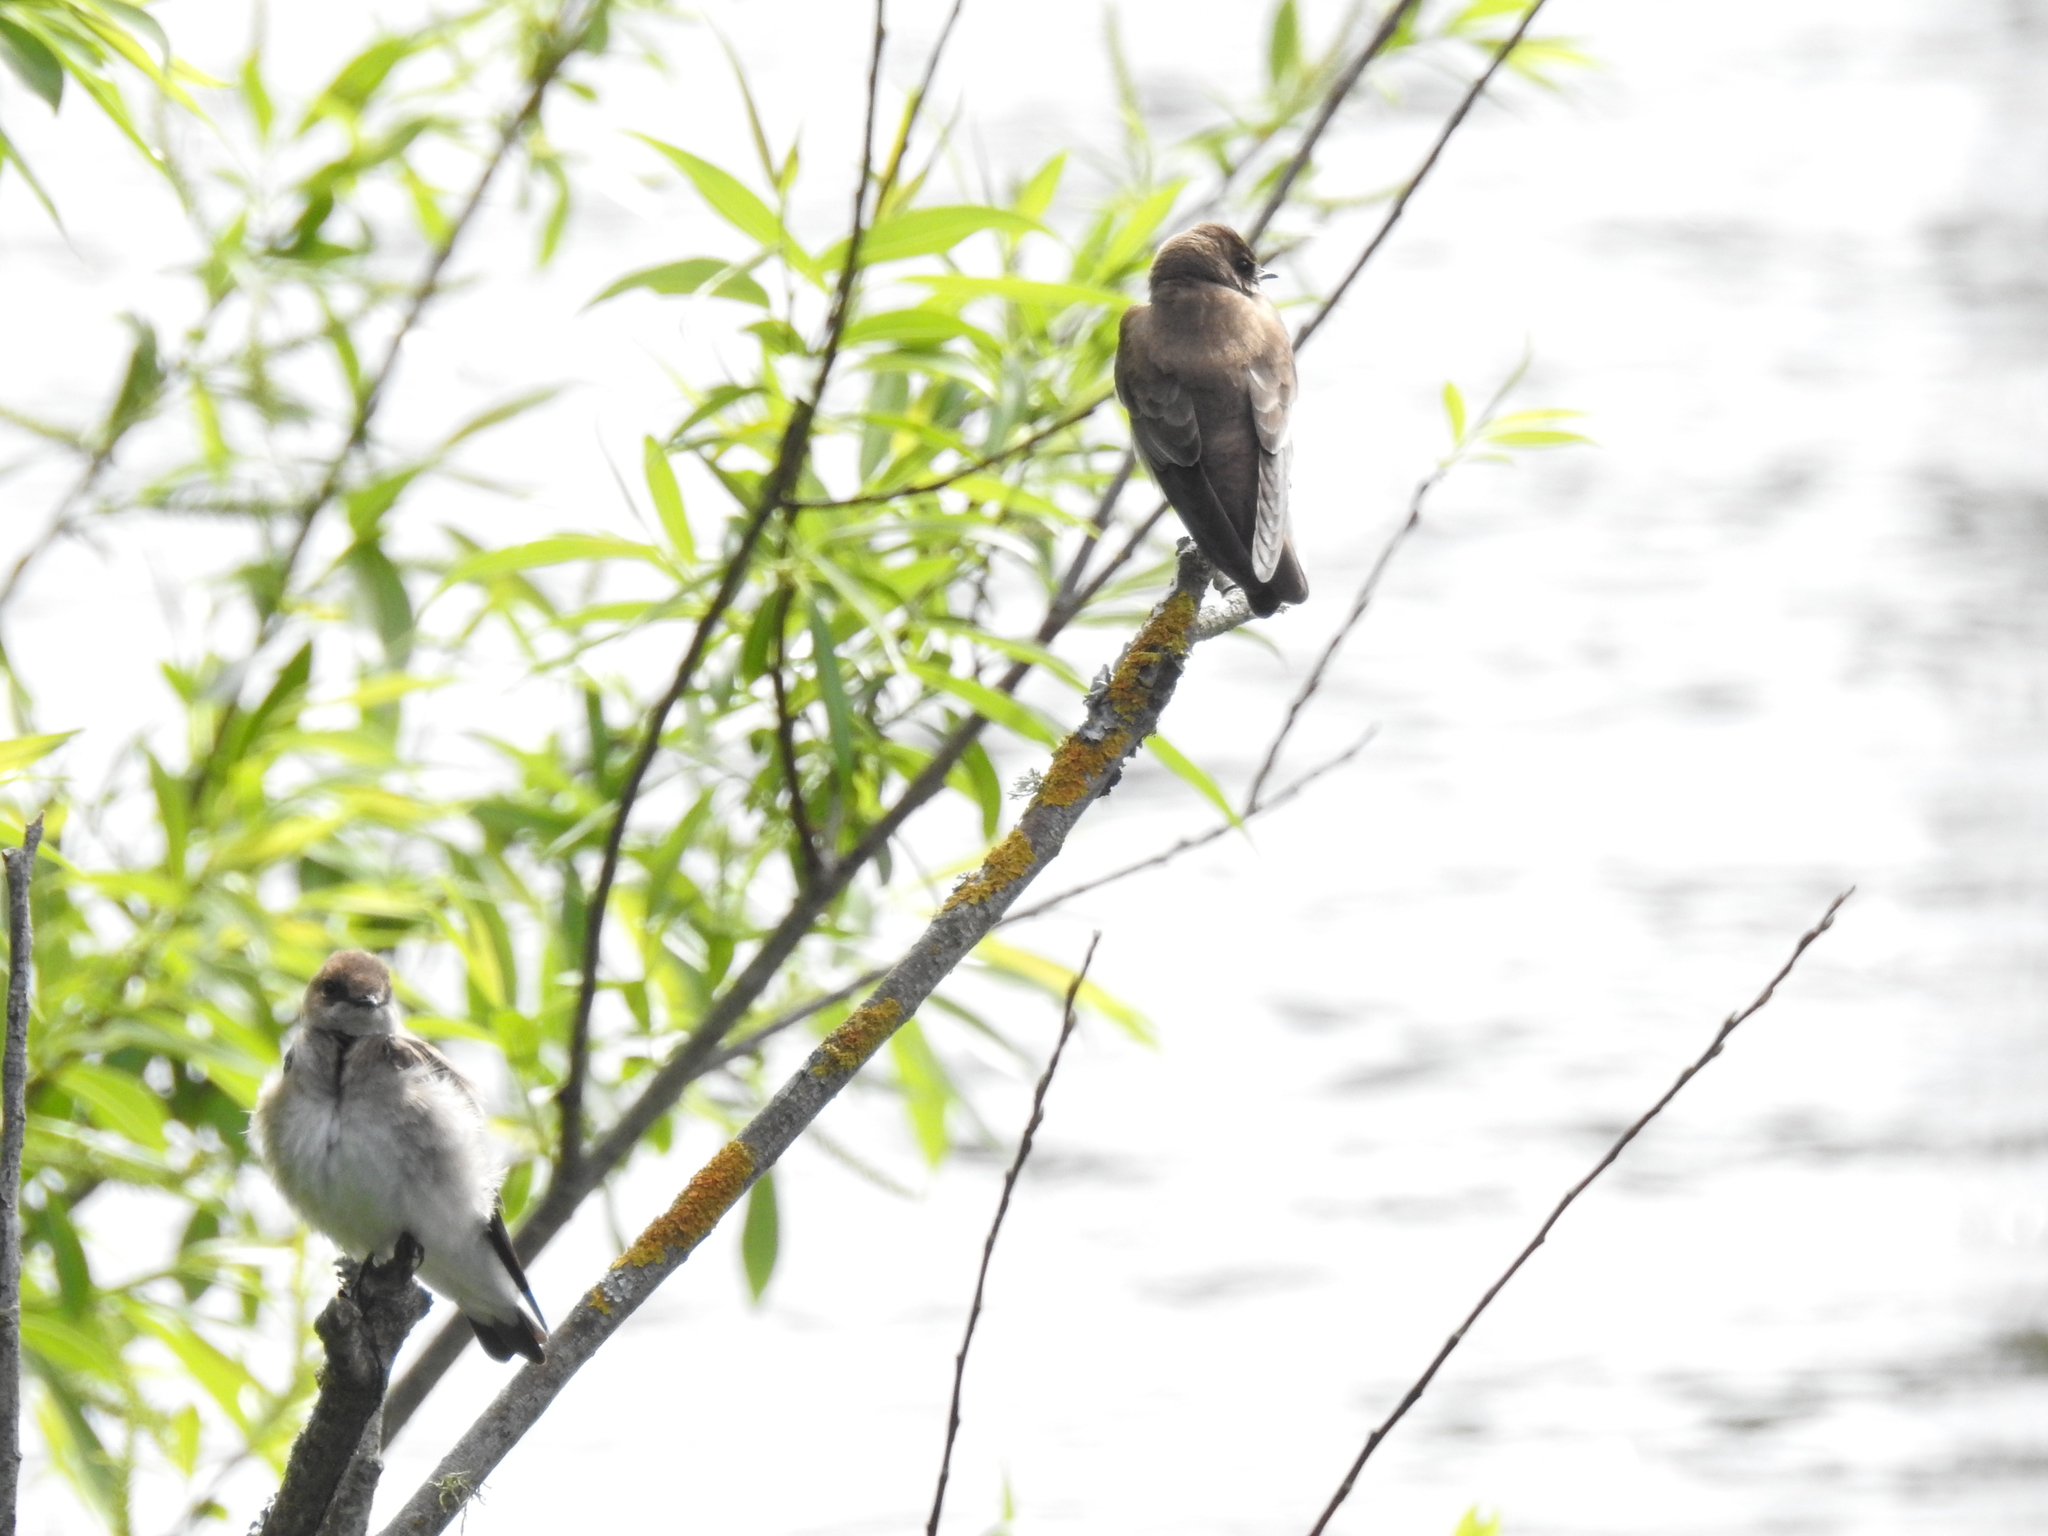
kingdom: Animalia
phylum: Chordata
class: Aves
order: Passeriformes
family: Hirundinidae
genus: Stelgidopteryx
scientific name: Stelgidopteryx serripennis
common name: Northern rough-winged swallow
